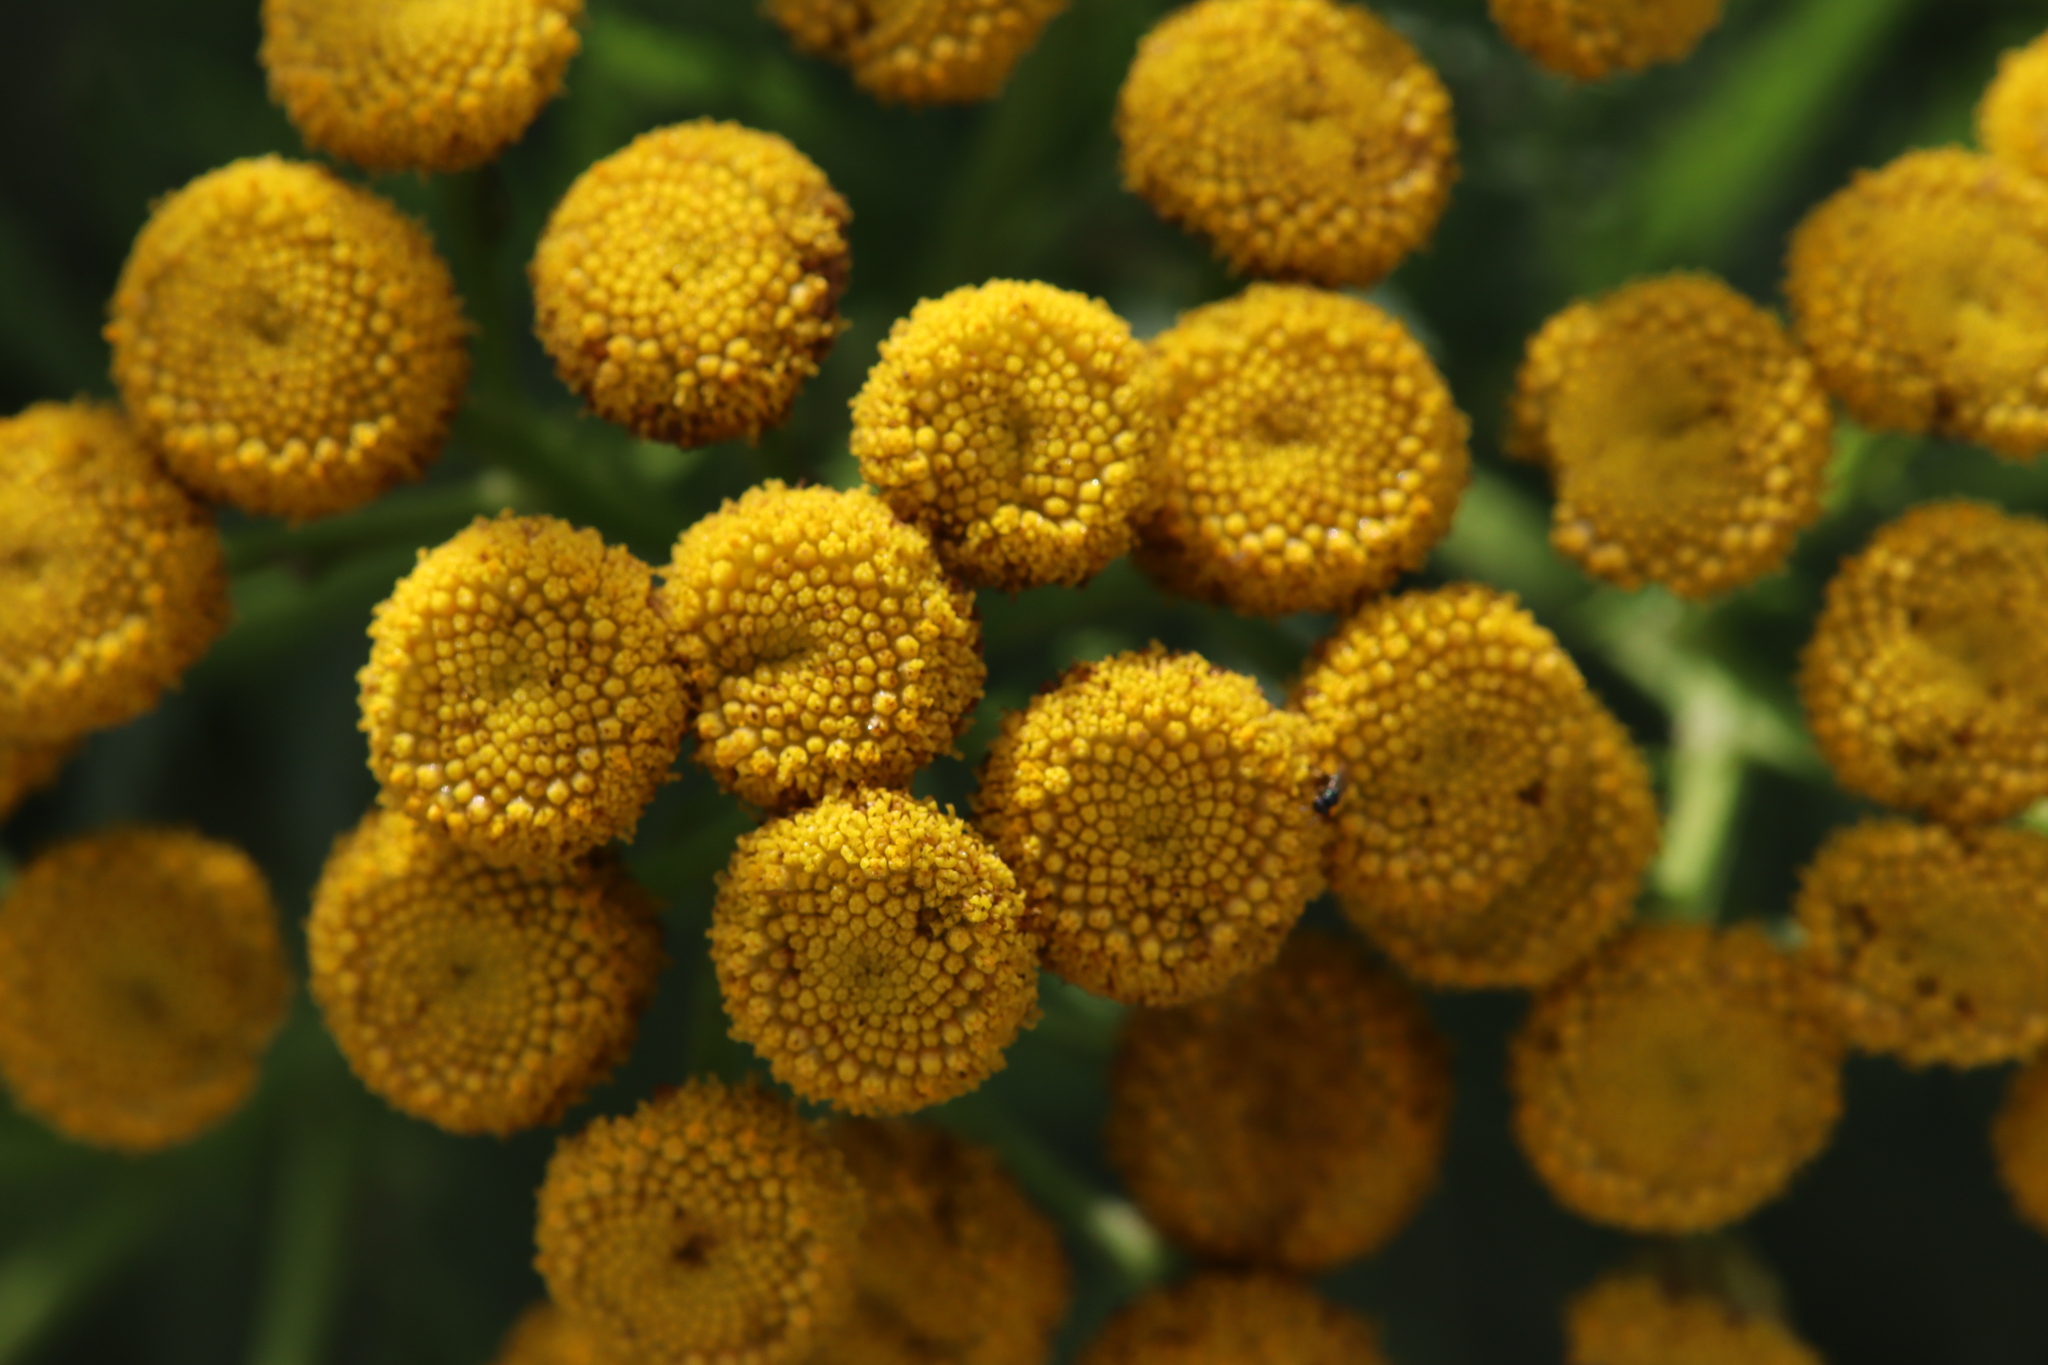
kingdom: Plantae
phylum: Tracheophyta
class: Magnoliopsida
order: Asterales
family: Asteraceae
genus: Tanacetum
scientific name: Tanacetum vulgare
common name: Common tansy
